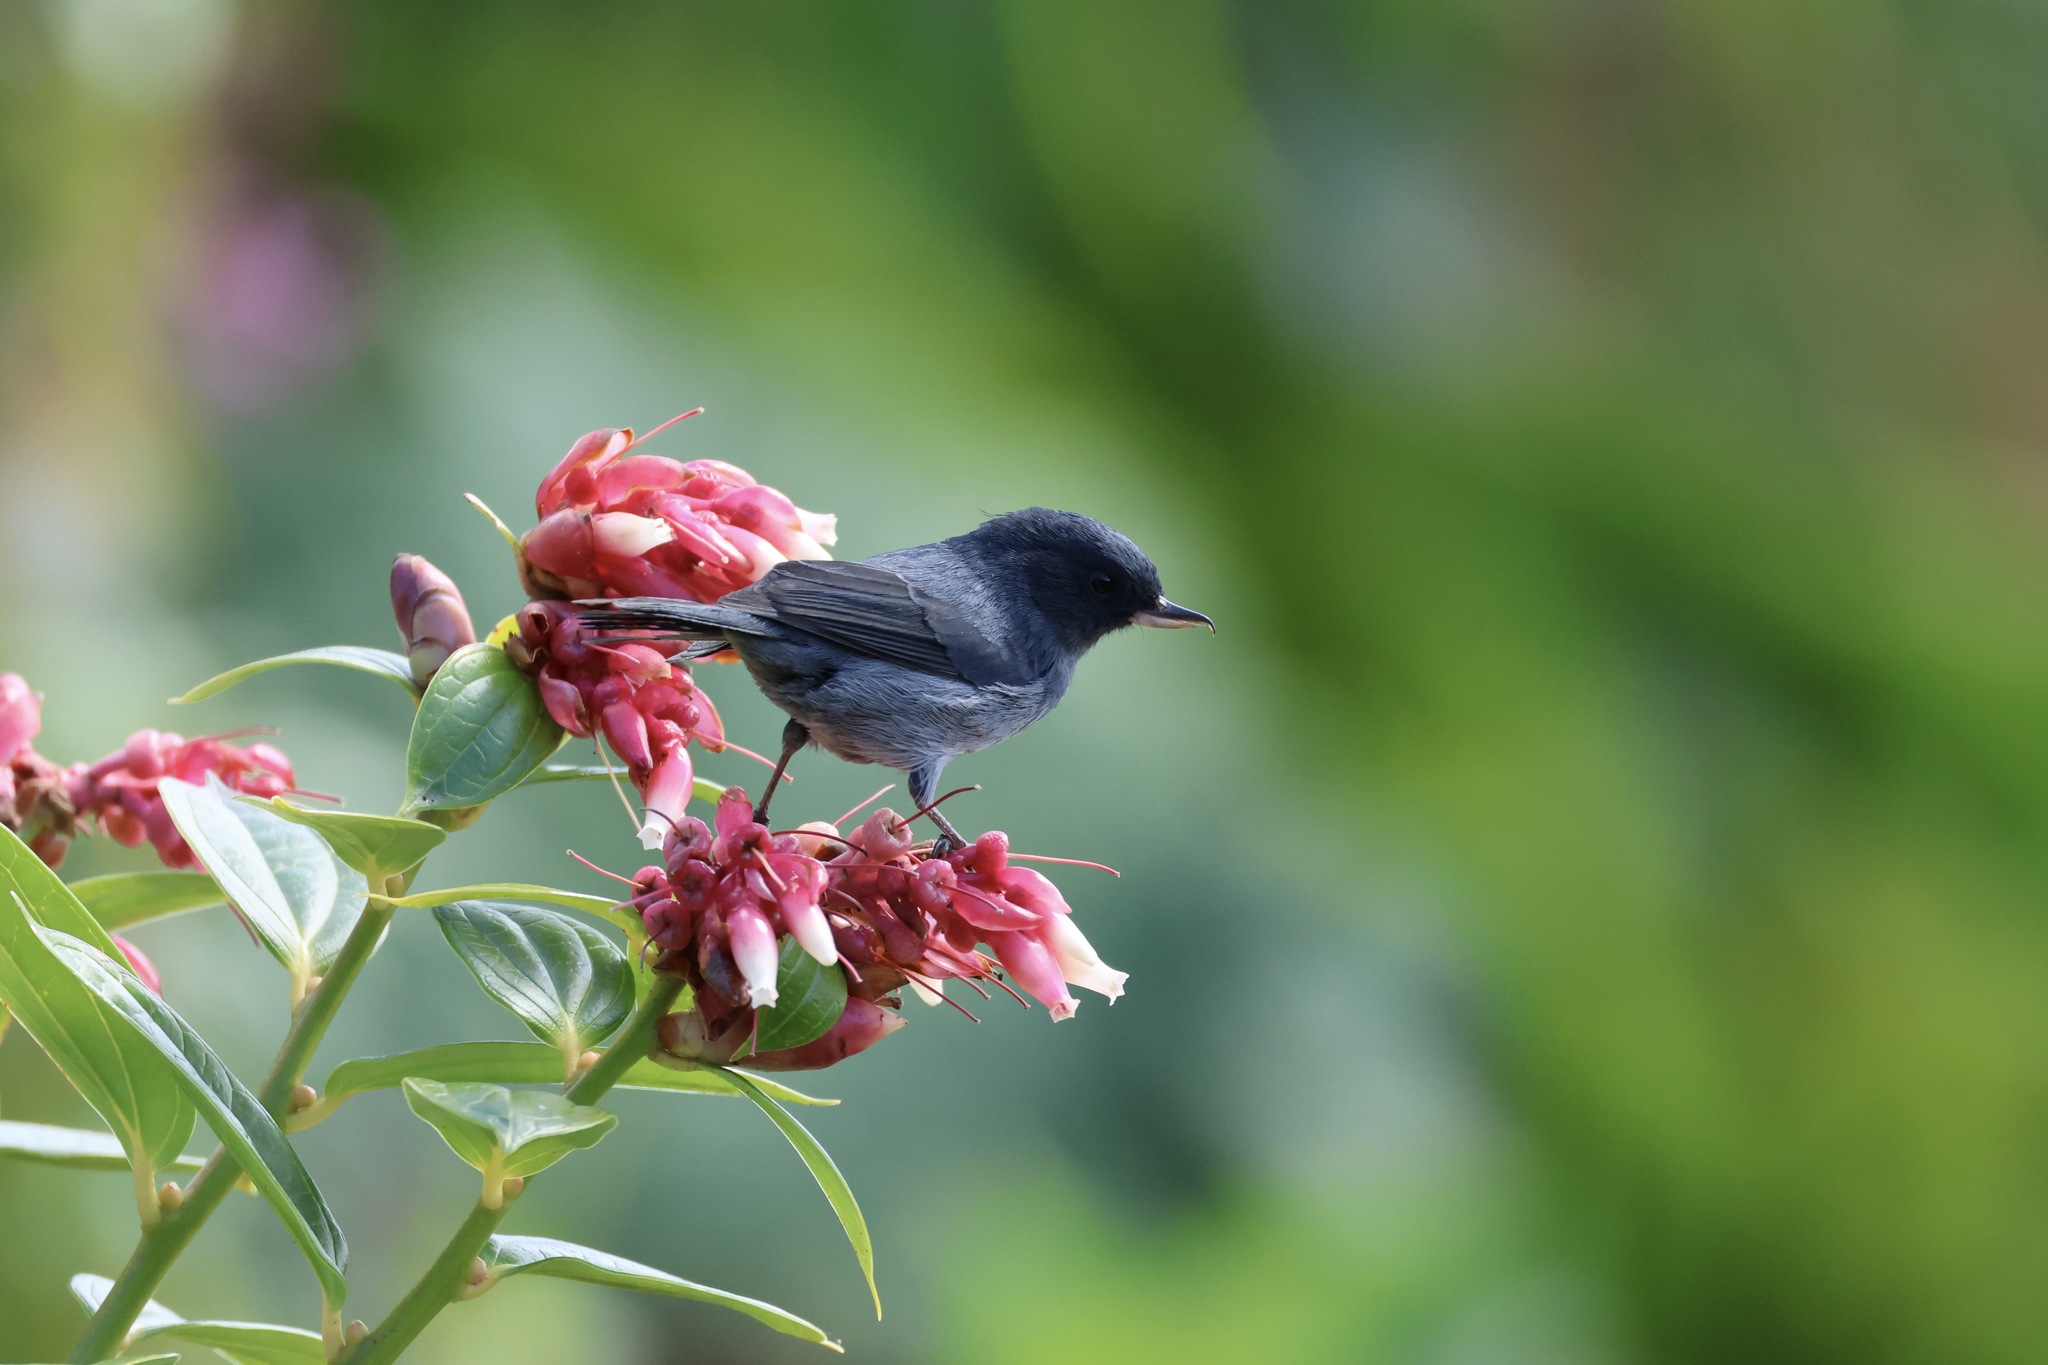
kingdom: Animalia
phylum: Chordata
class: Aves
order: Passeriformes
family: Thraupidae
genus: Diglossa
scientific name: Diglossa plumbea
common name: Slaty flowerpiercer
